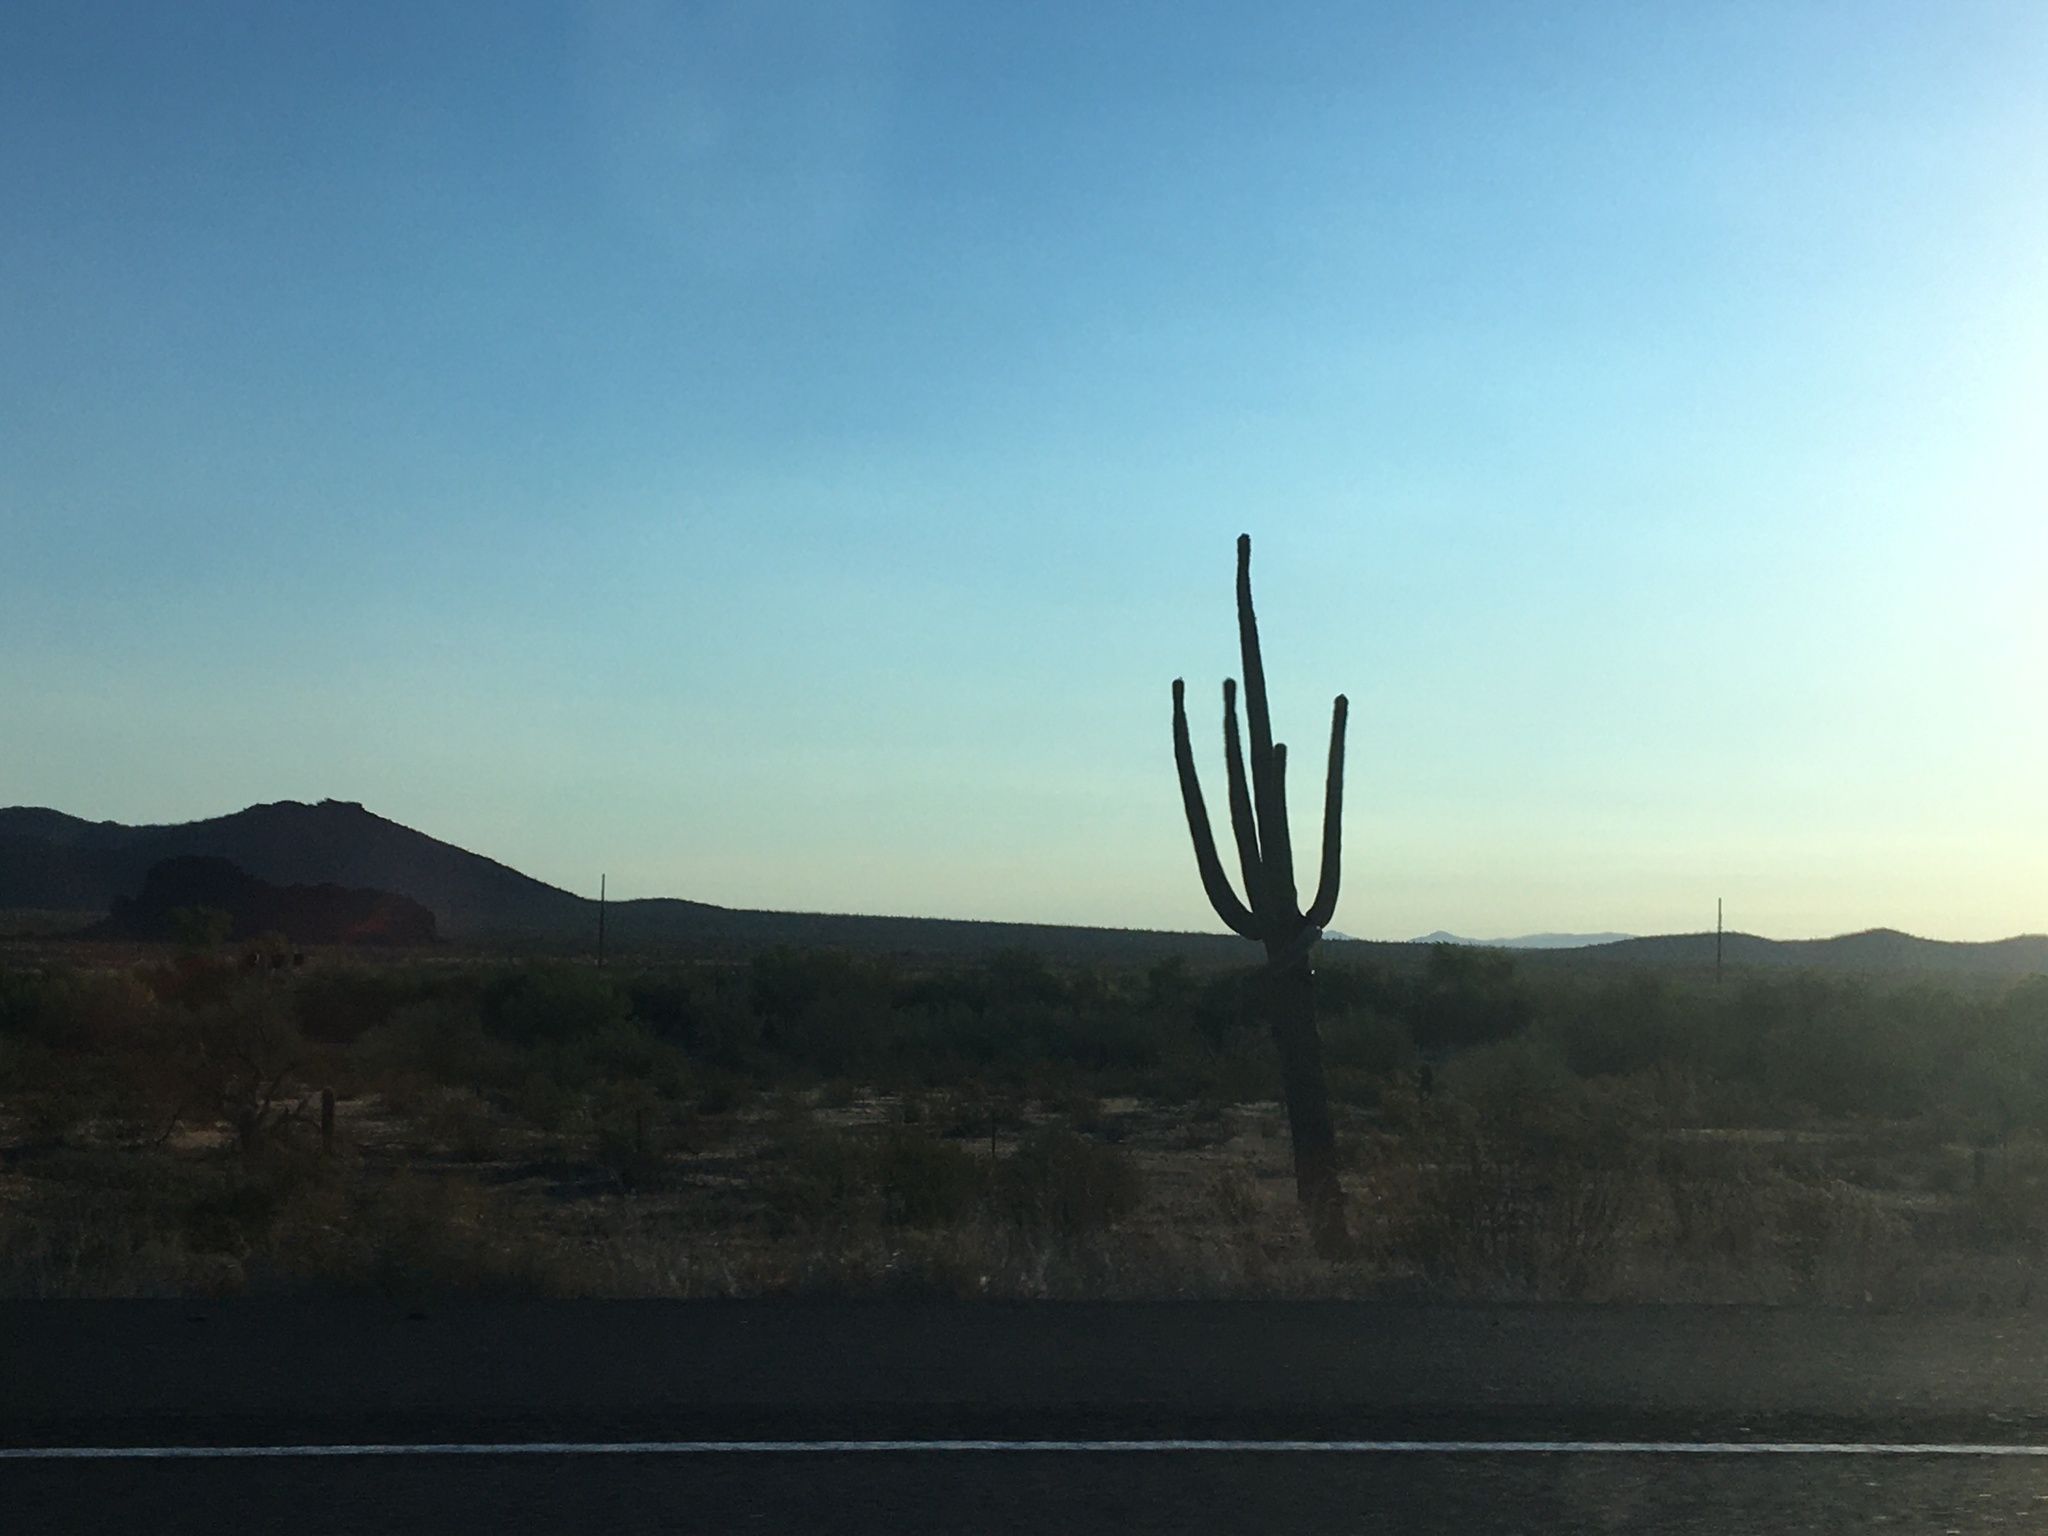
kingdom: Plantae
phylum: Tracheophyta
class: Magnoliopsida
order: Caryophyllales
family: Cactaceae
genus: Carnegiea
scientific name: Carnegiea gigantea
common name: Saguaro
